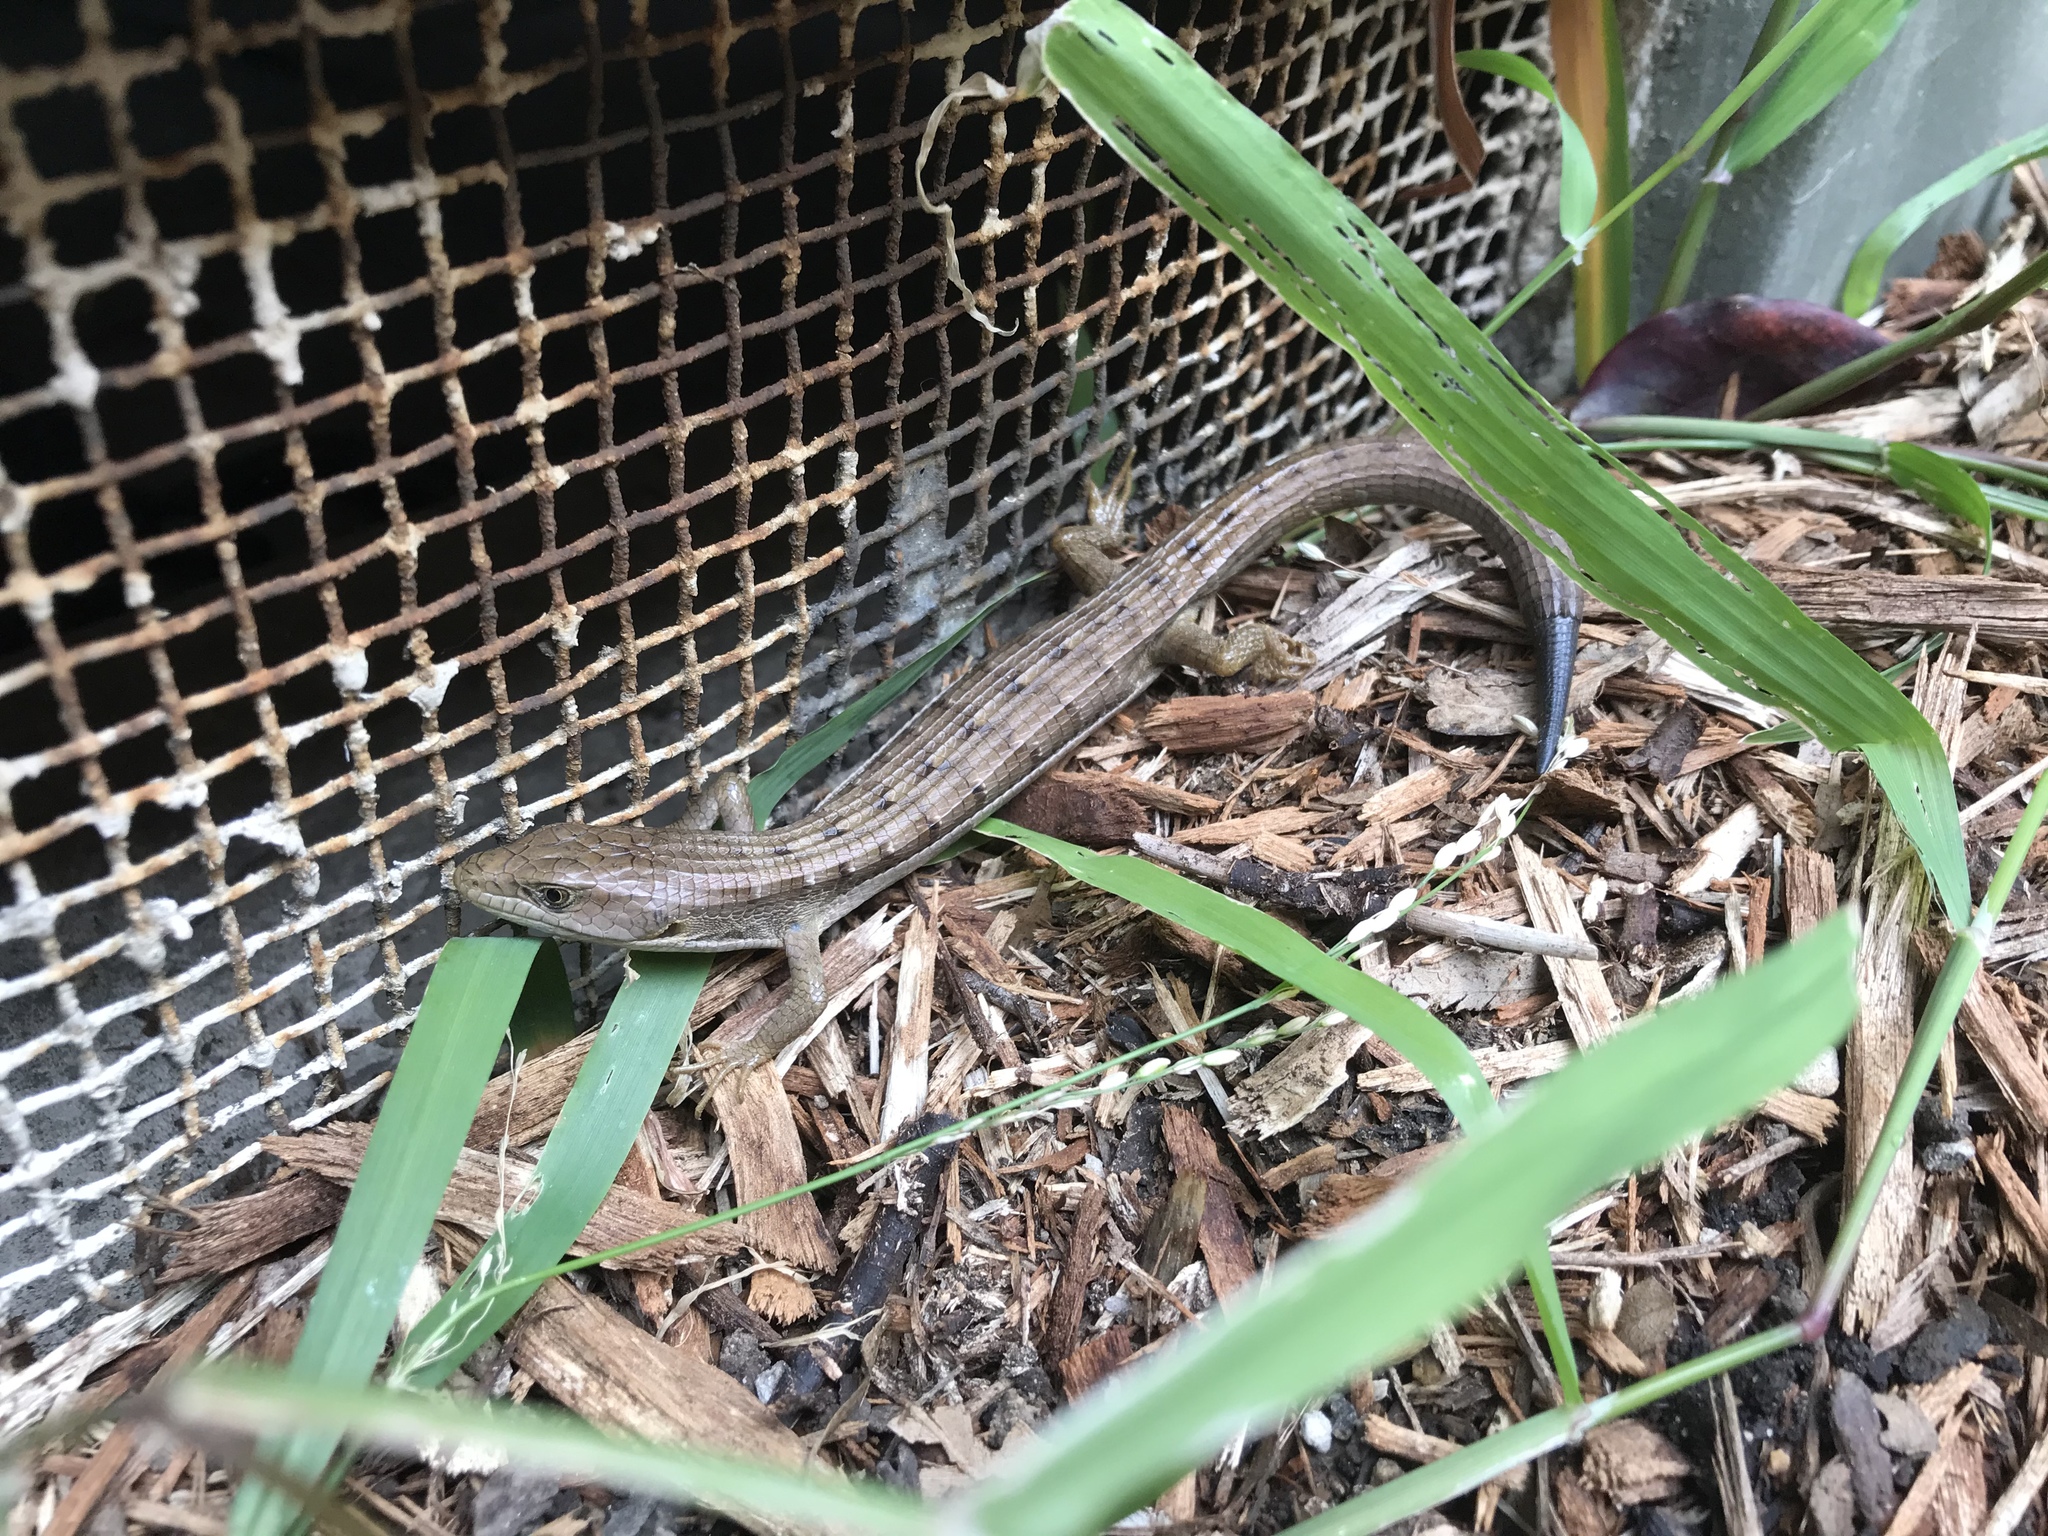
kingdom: Animalia
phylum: Chordata
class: Squamata
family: Anguidae
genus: Elgaria
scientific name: Elgaria multicarinata
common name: Southern alligator lizard
